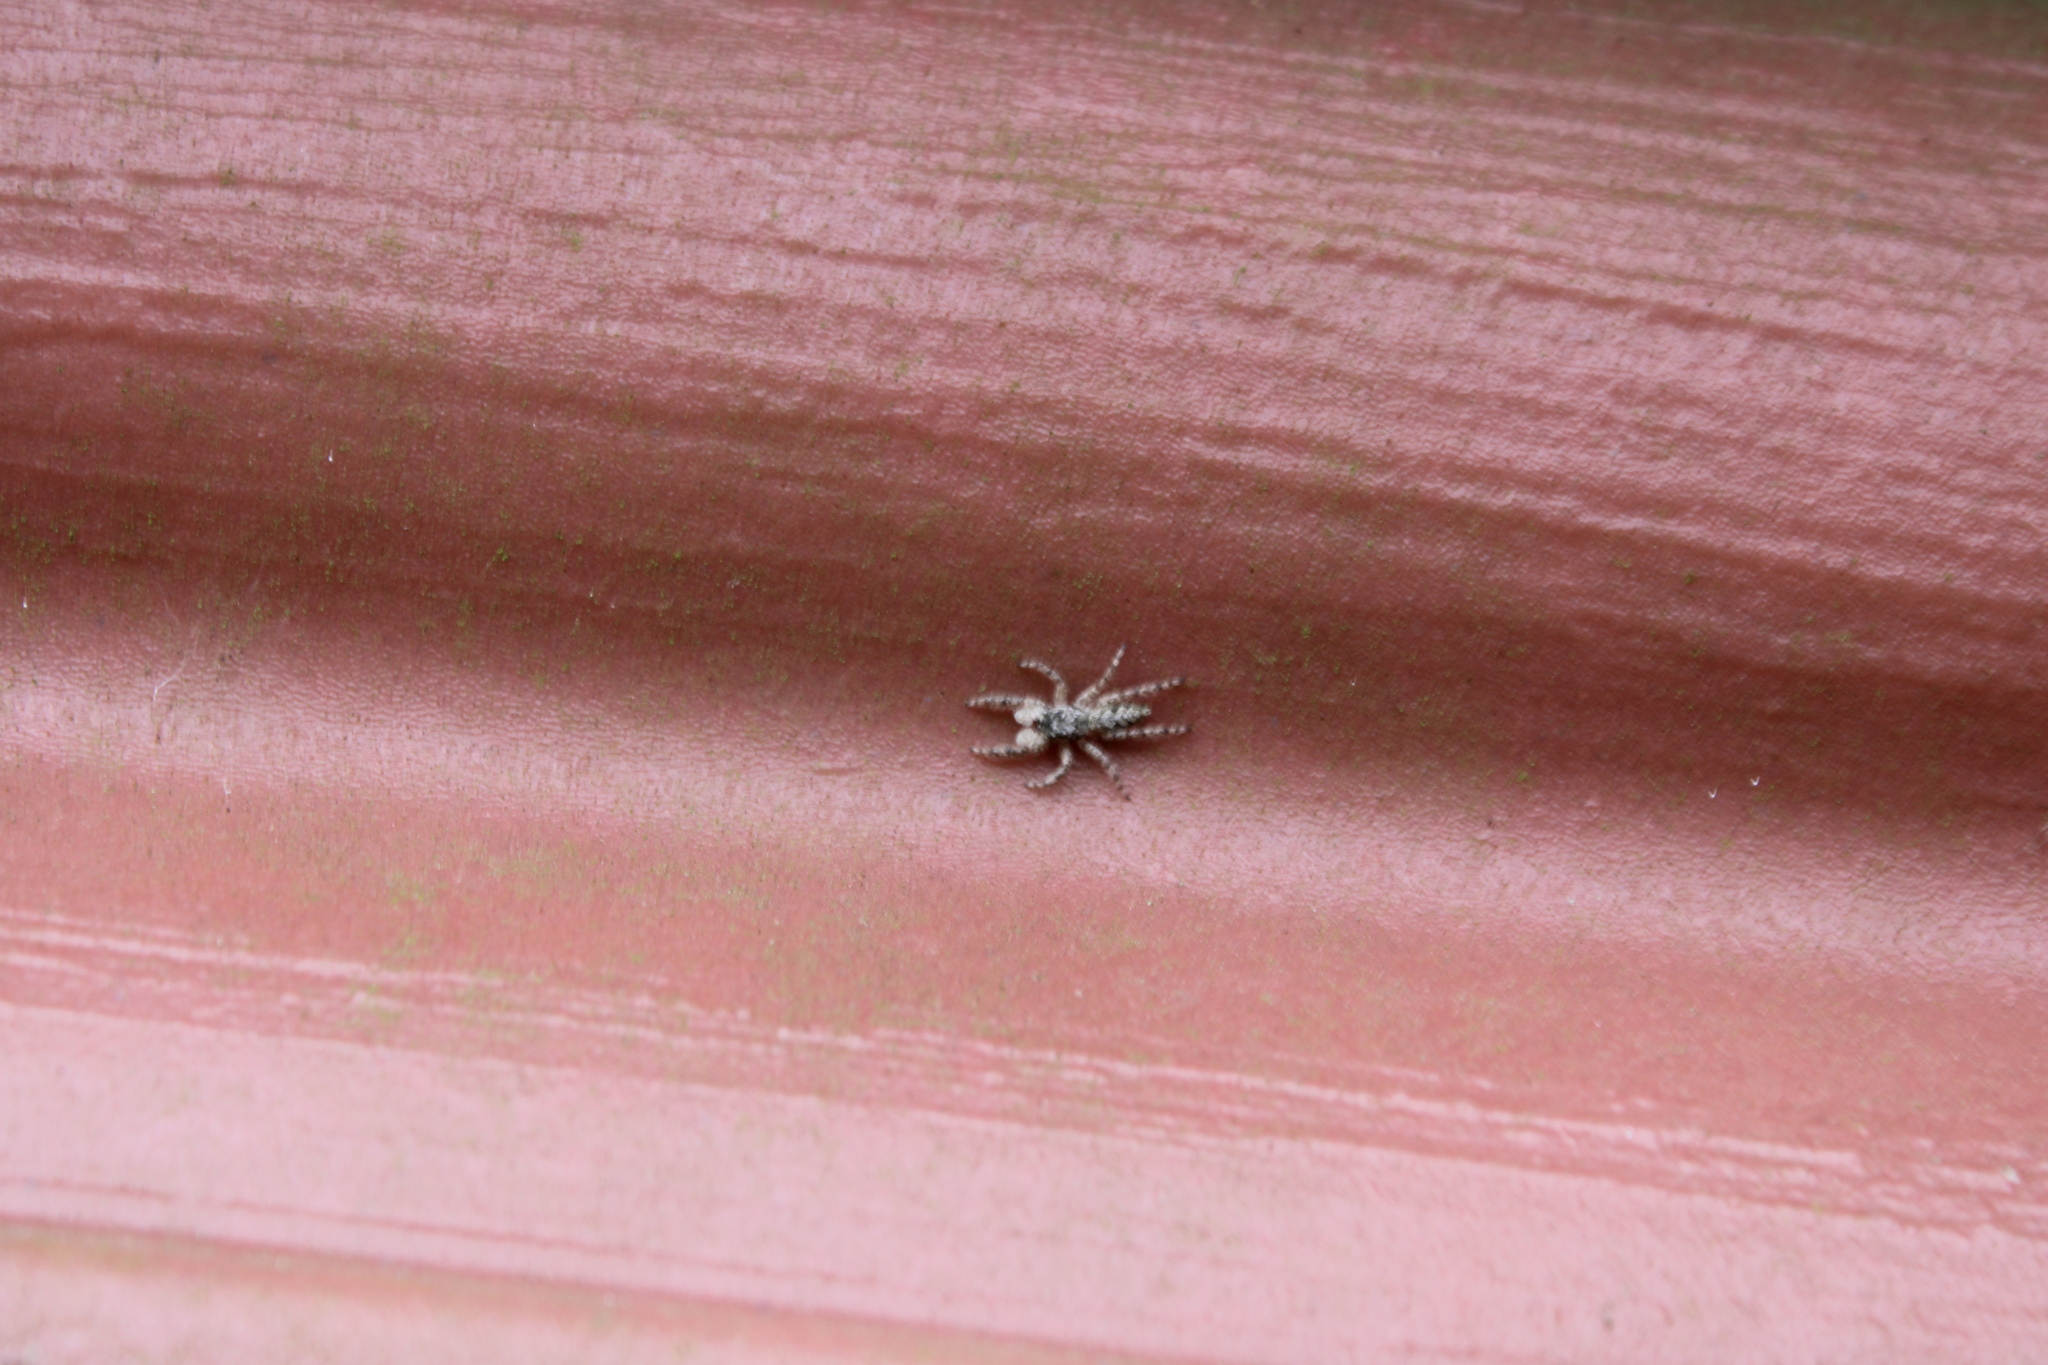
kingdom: Animalia
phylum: Arthropoda
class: Arachnida
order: Araneae
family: Salticidae
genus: Platycryptus
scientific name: Platycryptus undatus
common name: Tan jumping spider
